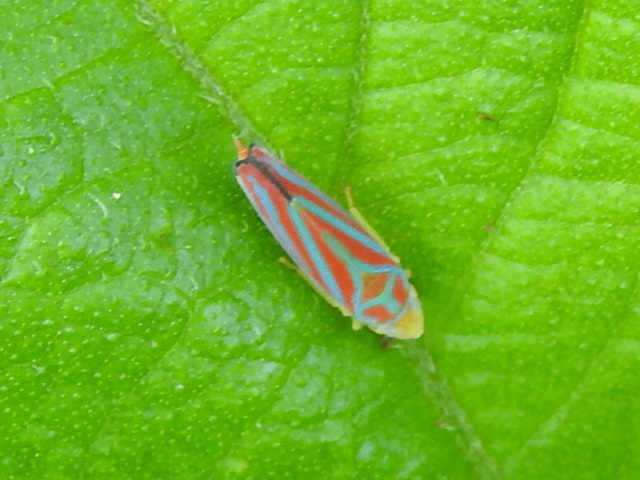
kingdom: Animalia
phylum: Arthropoda
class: Insecta
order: Hemiptera
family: Cicadellidae
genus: Graphocephala
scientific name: Graphocephala coccinea
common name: Candy-striped leafhopper
